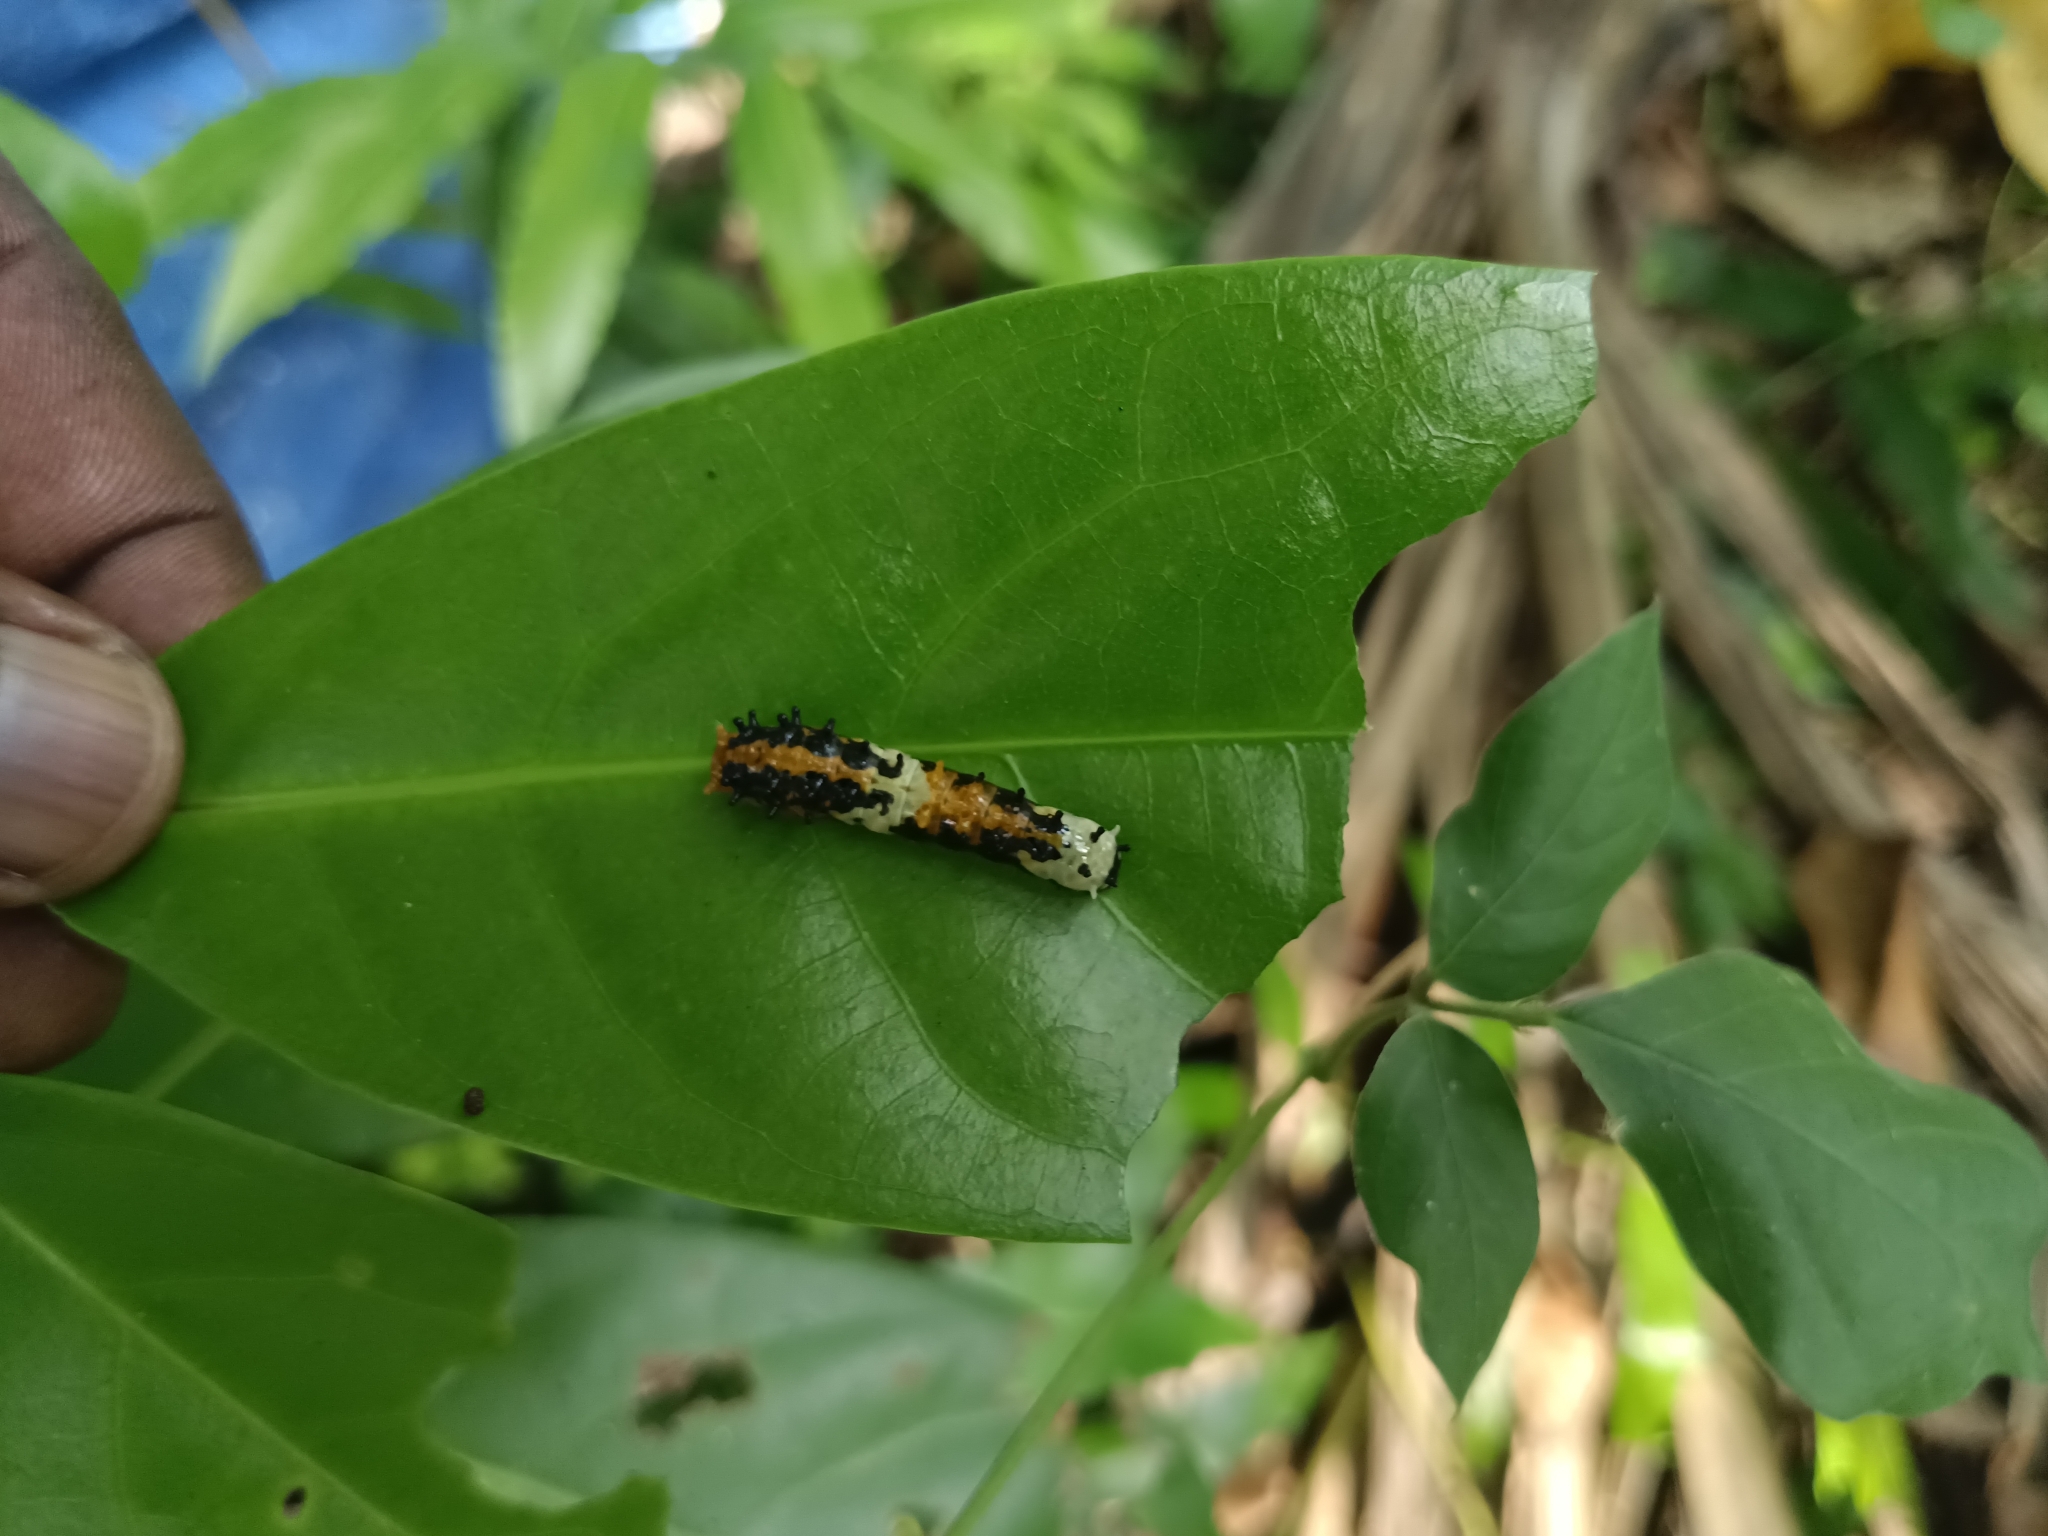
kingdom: Animalia
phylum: Arthropoda
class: Insecta
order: Lepidoptera
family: Papilionidae
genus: Chilasa
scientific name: Chilasa clytia
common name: Common mime
